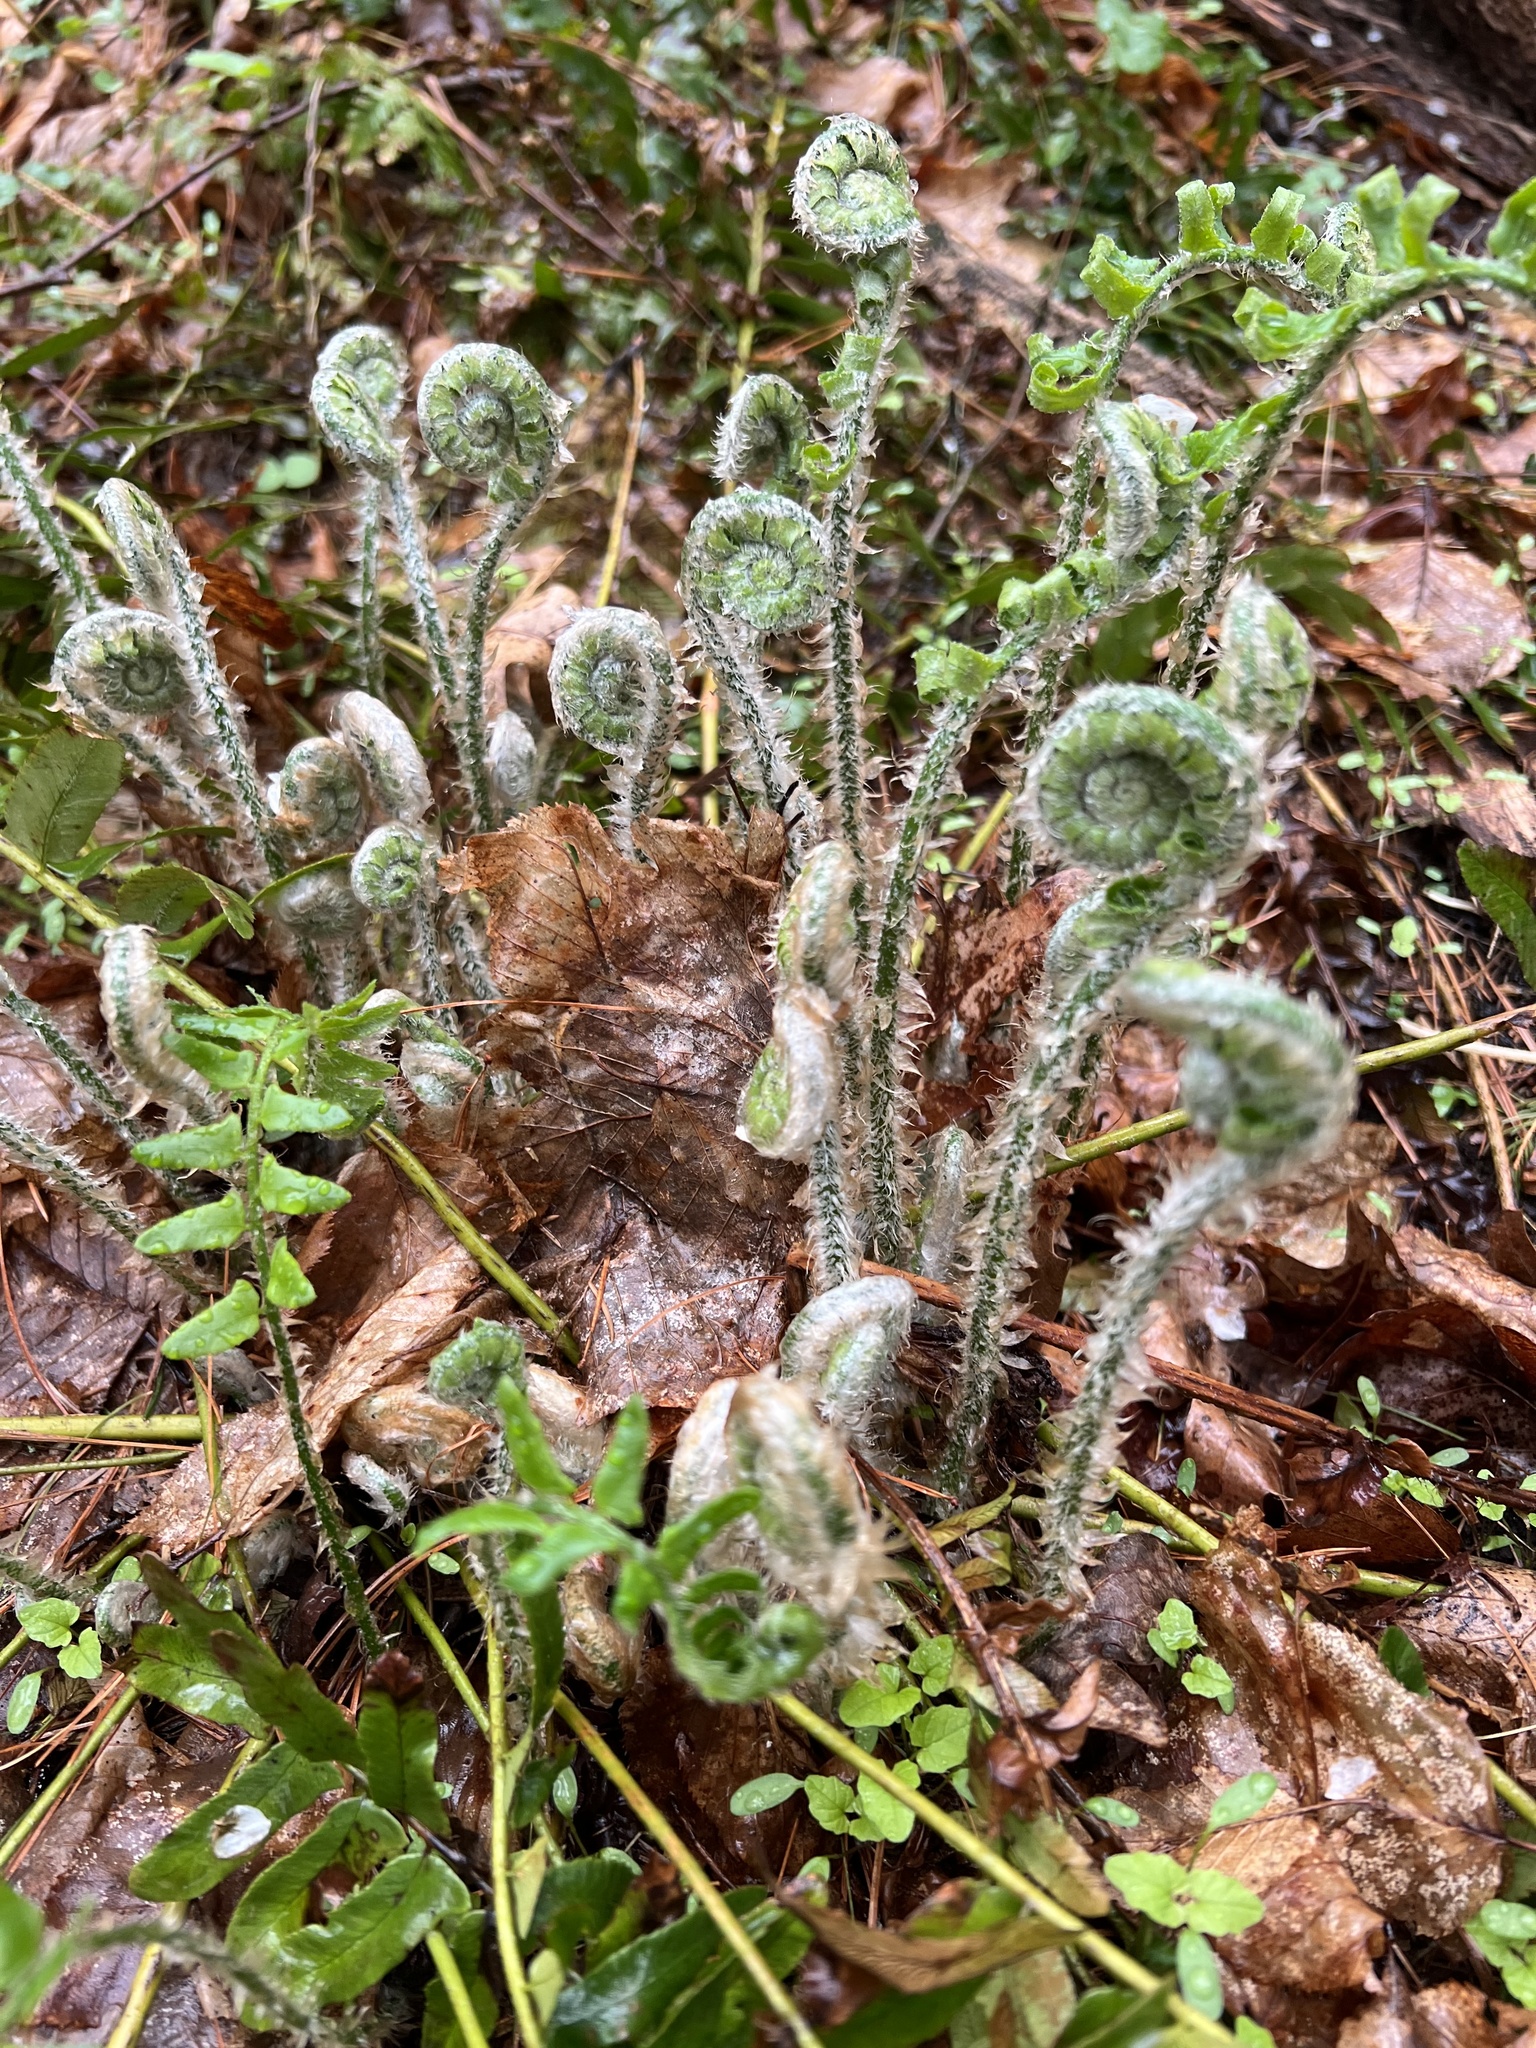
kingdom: Plantae
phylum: Tracheophyta
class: Polypodiopsida
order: Polypodiales
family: Dryopteridaceae
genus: Polystichum
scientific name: Polystichum acrostichoides
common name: Christmas fern
